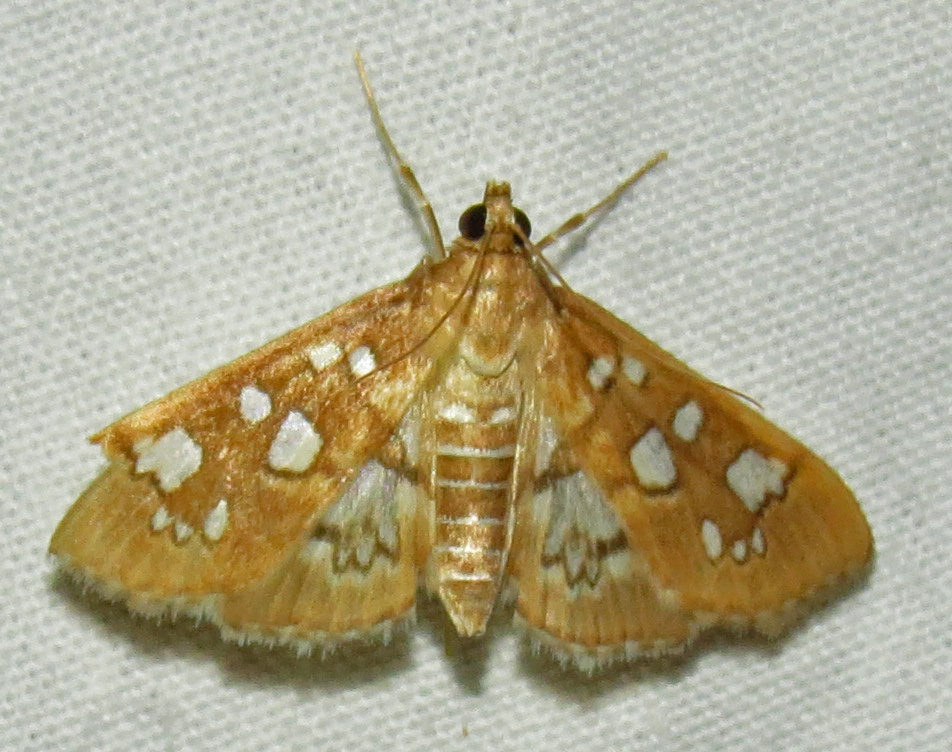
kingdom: Animalia
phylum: Arthropoda
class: Insecta
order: Lepidoptera
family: Crambidae
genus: Samea
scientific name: Samea baccatalis
